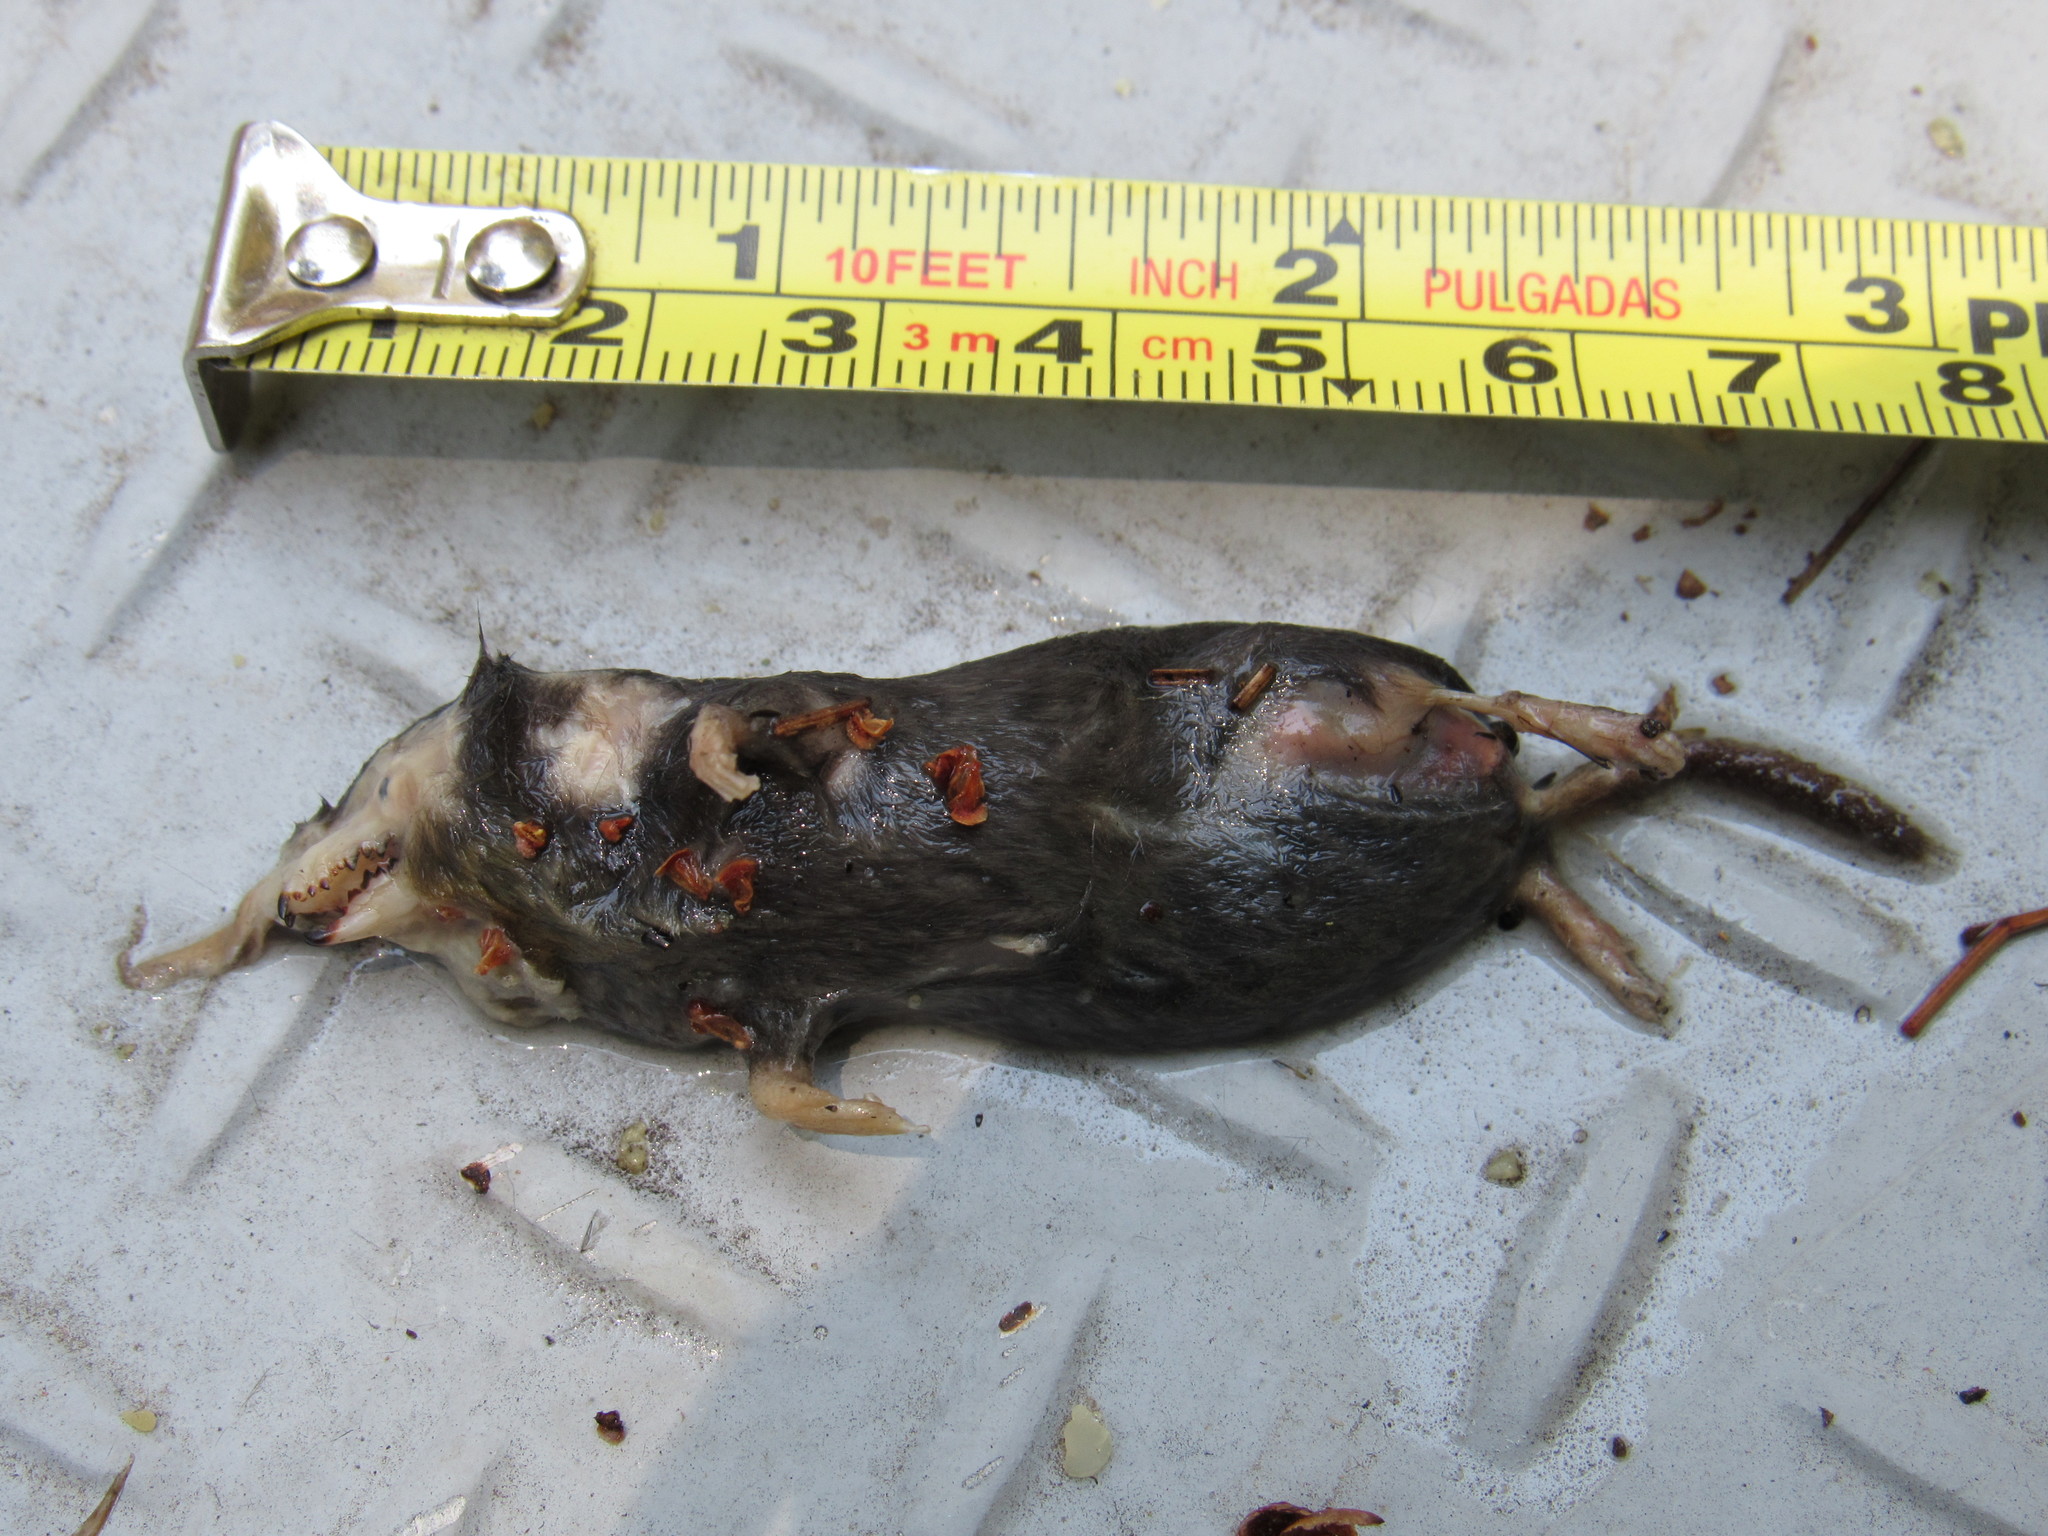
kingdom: Animalia
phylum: Chordata
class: Mammalia
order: Soricomorpha
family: Soricidae
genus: Sorex
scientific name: Sorex saussurei
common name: Saussure's shrew
